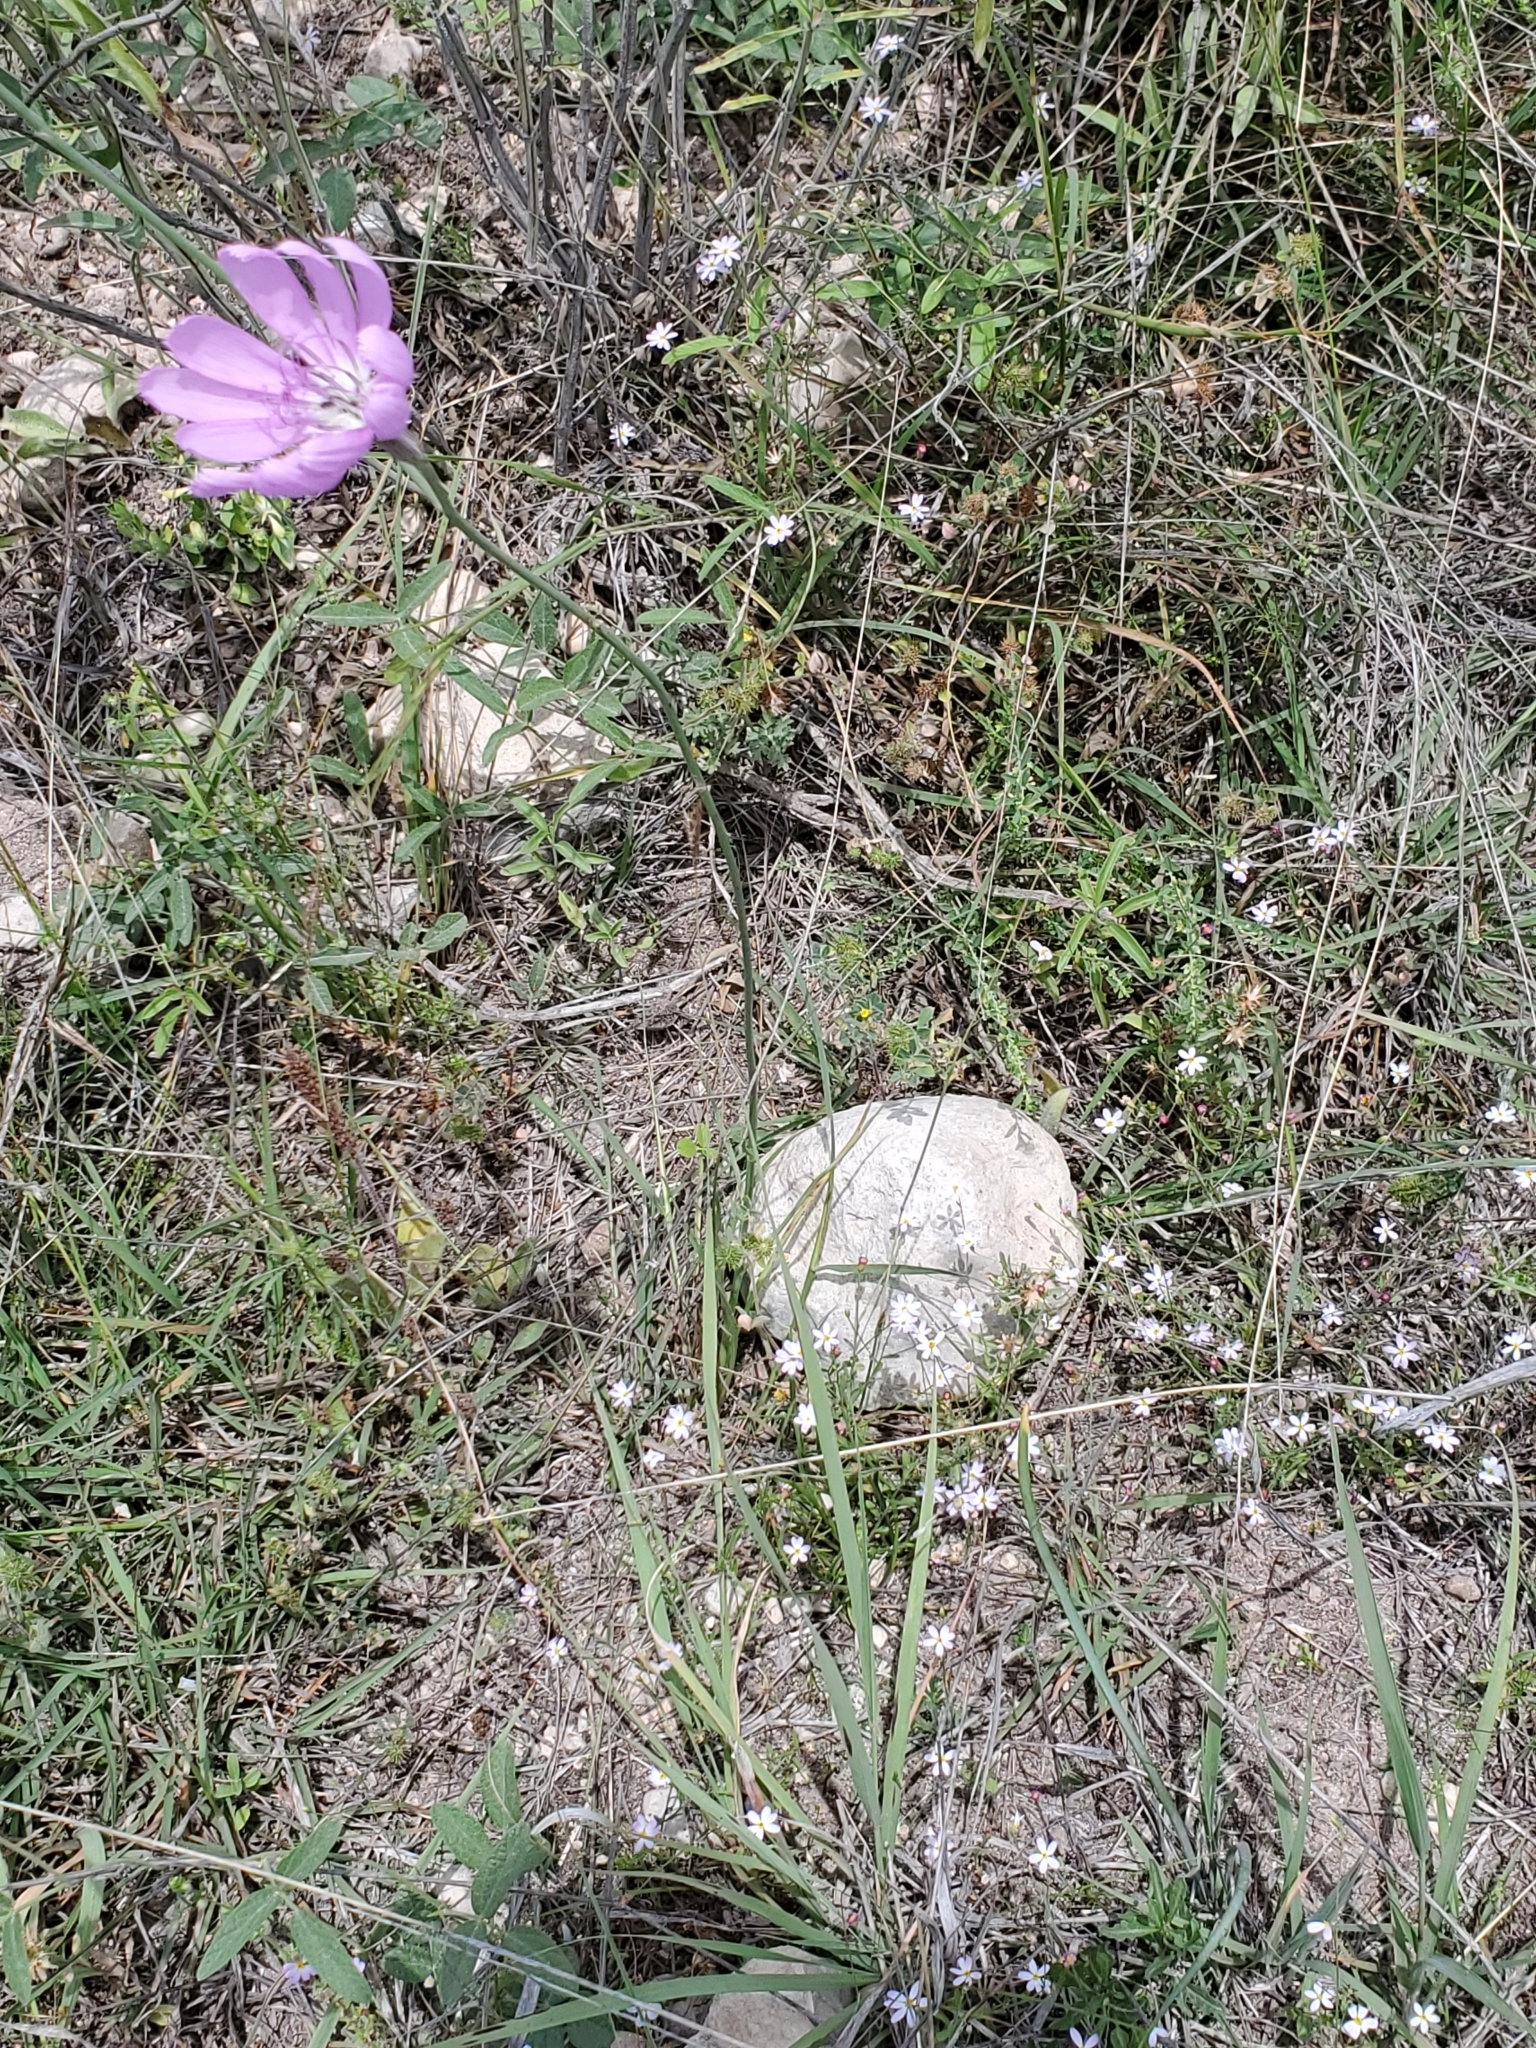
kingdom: Plantae
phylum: Tracheophyta
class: Magnoliopsida
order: Asterales
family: Asteraceae
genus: Lygodesmia
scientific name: Lygodesmia texana
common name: Texas skeleton-plant
